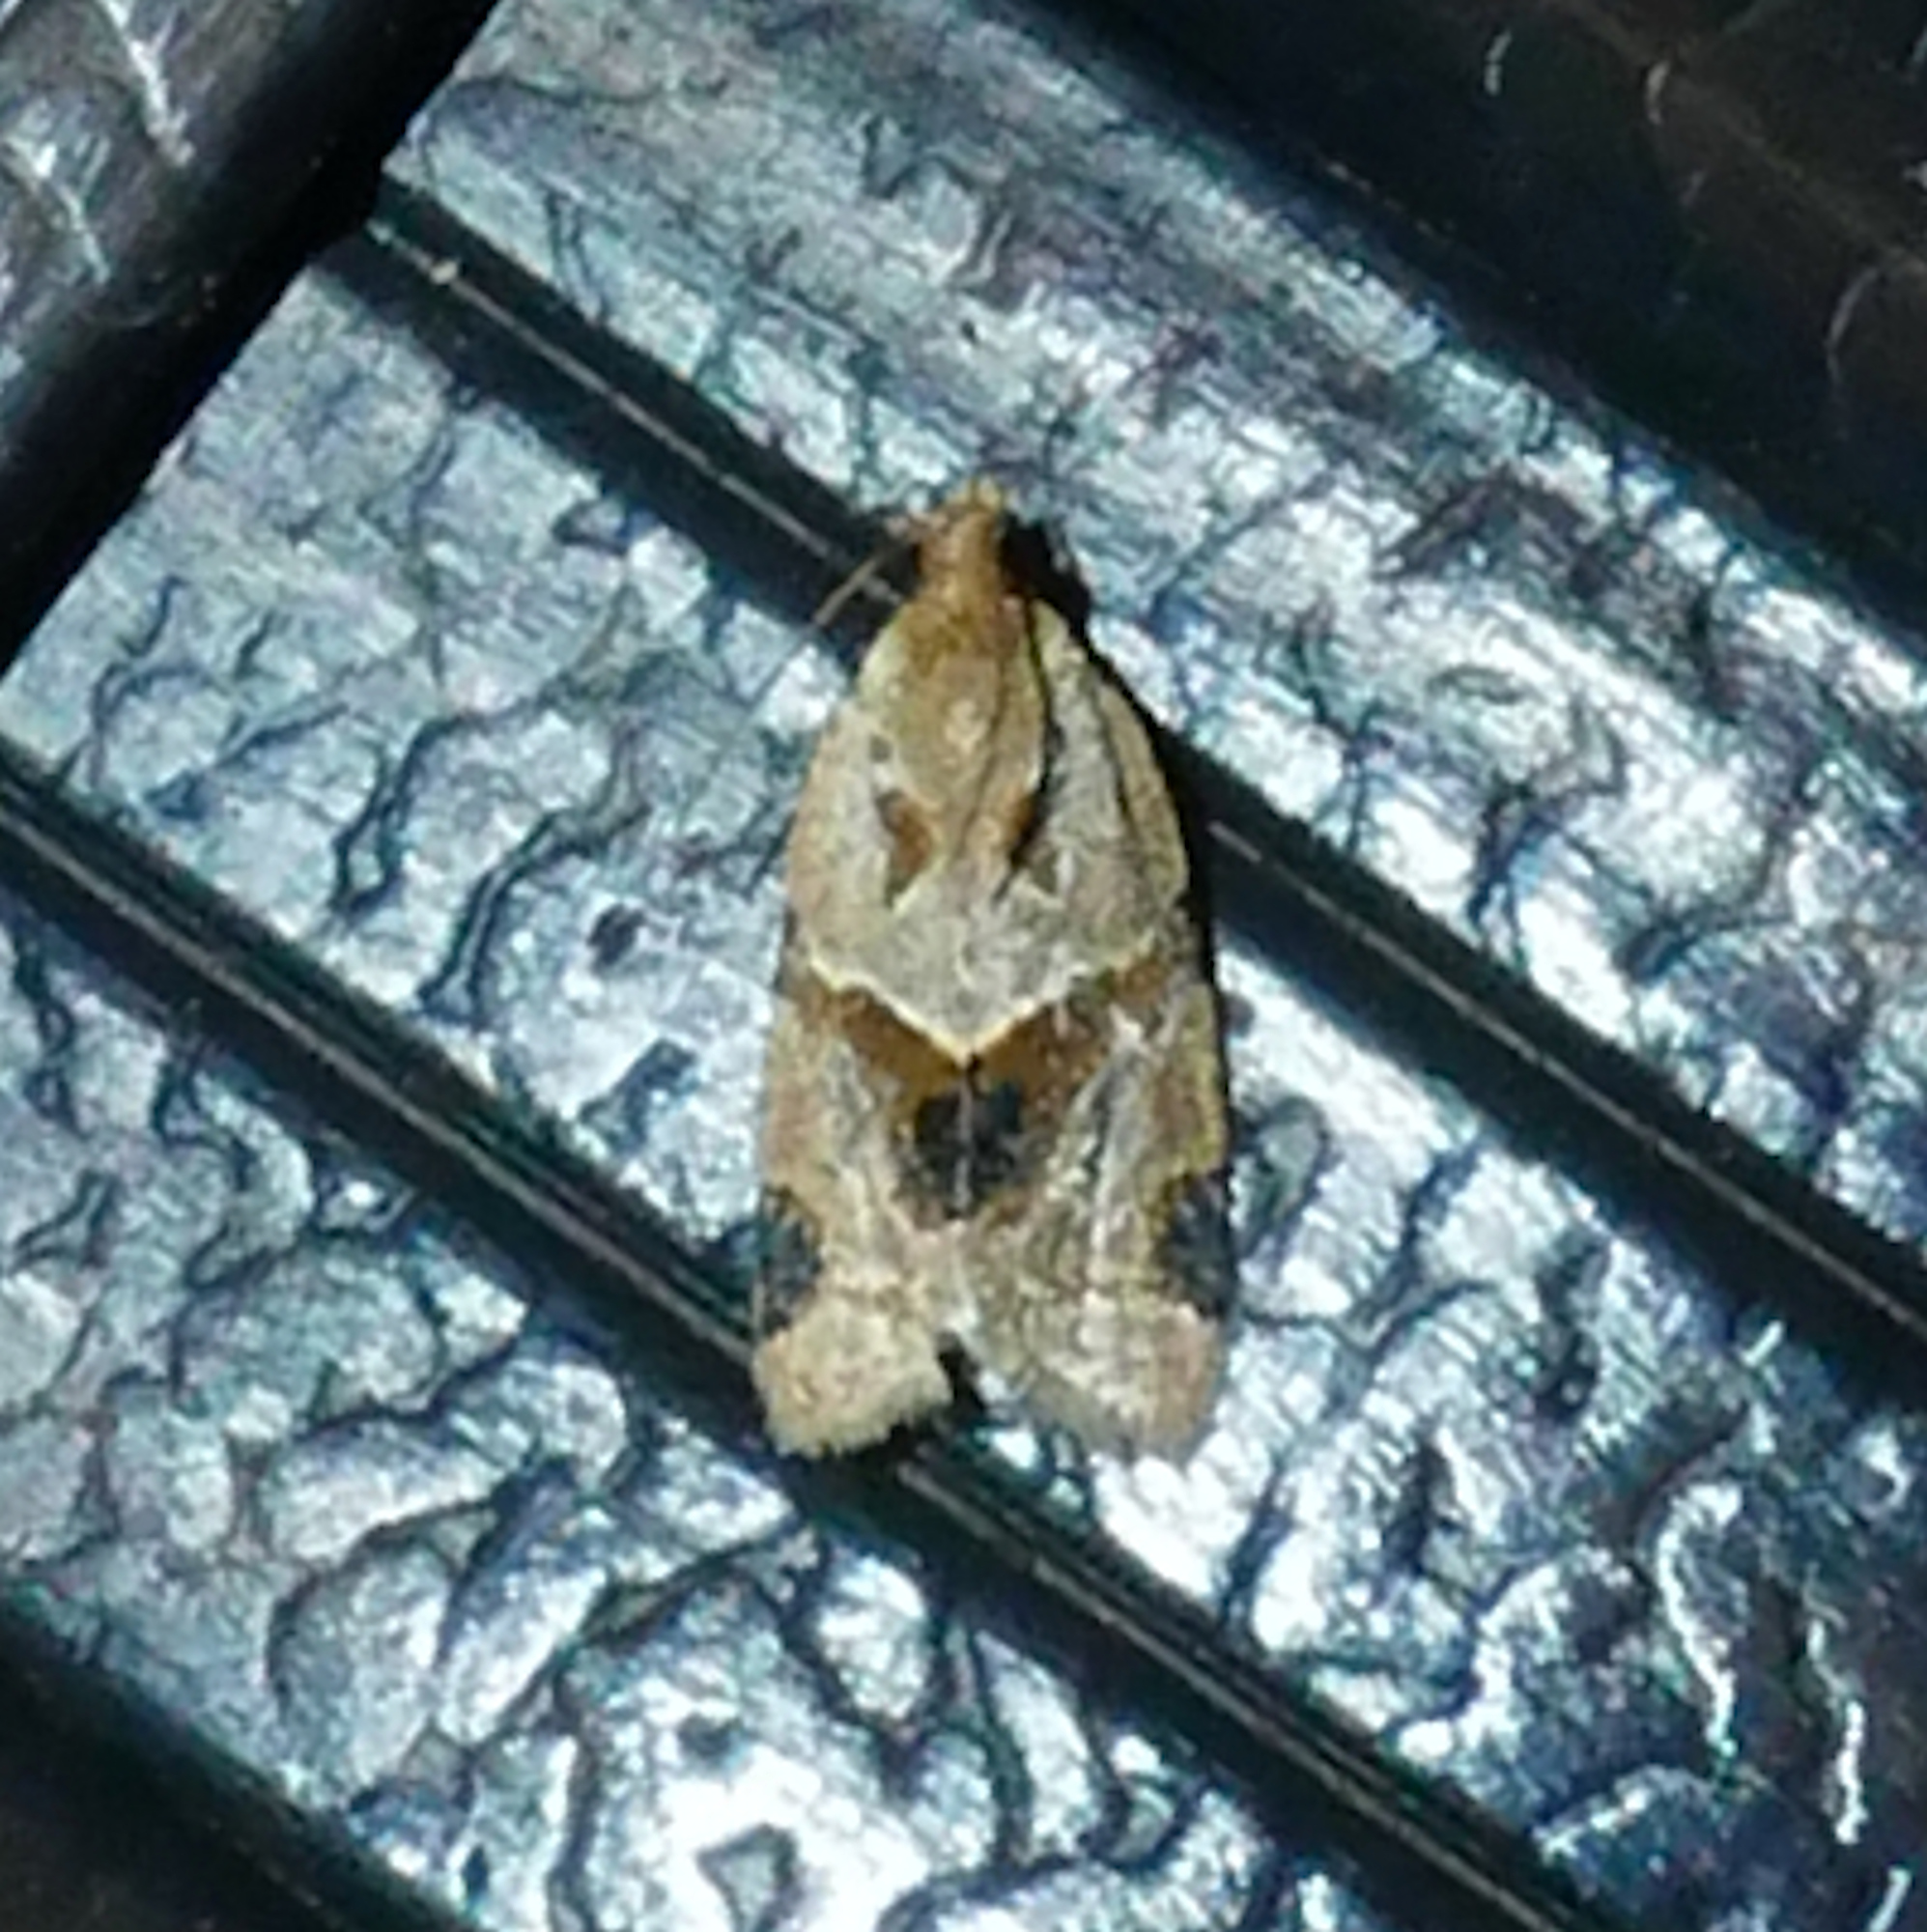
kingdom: Animalia
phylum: Arthropoda
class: Insecta
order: Lepidoptera
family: Tortricidae
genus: Clepsis
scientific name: Clepsis peritana
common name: Garden tortrix
